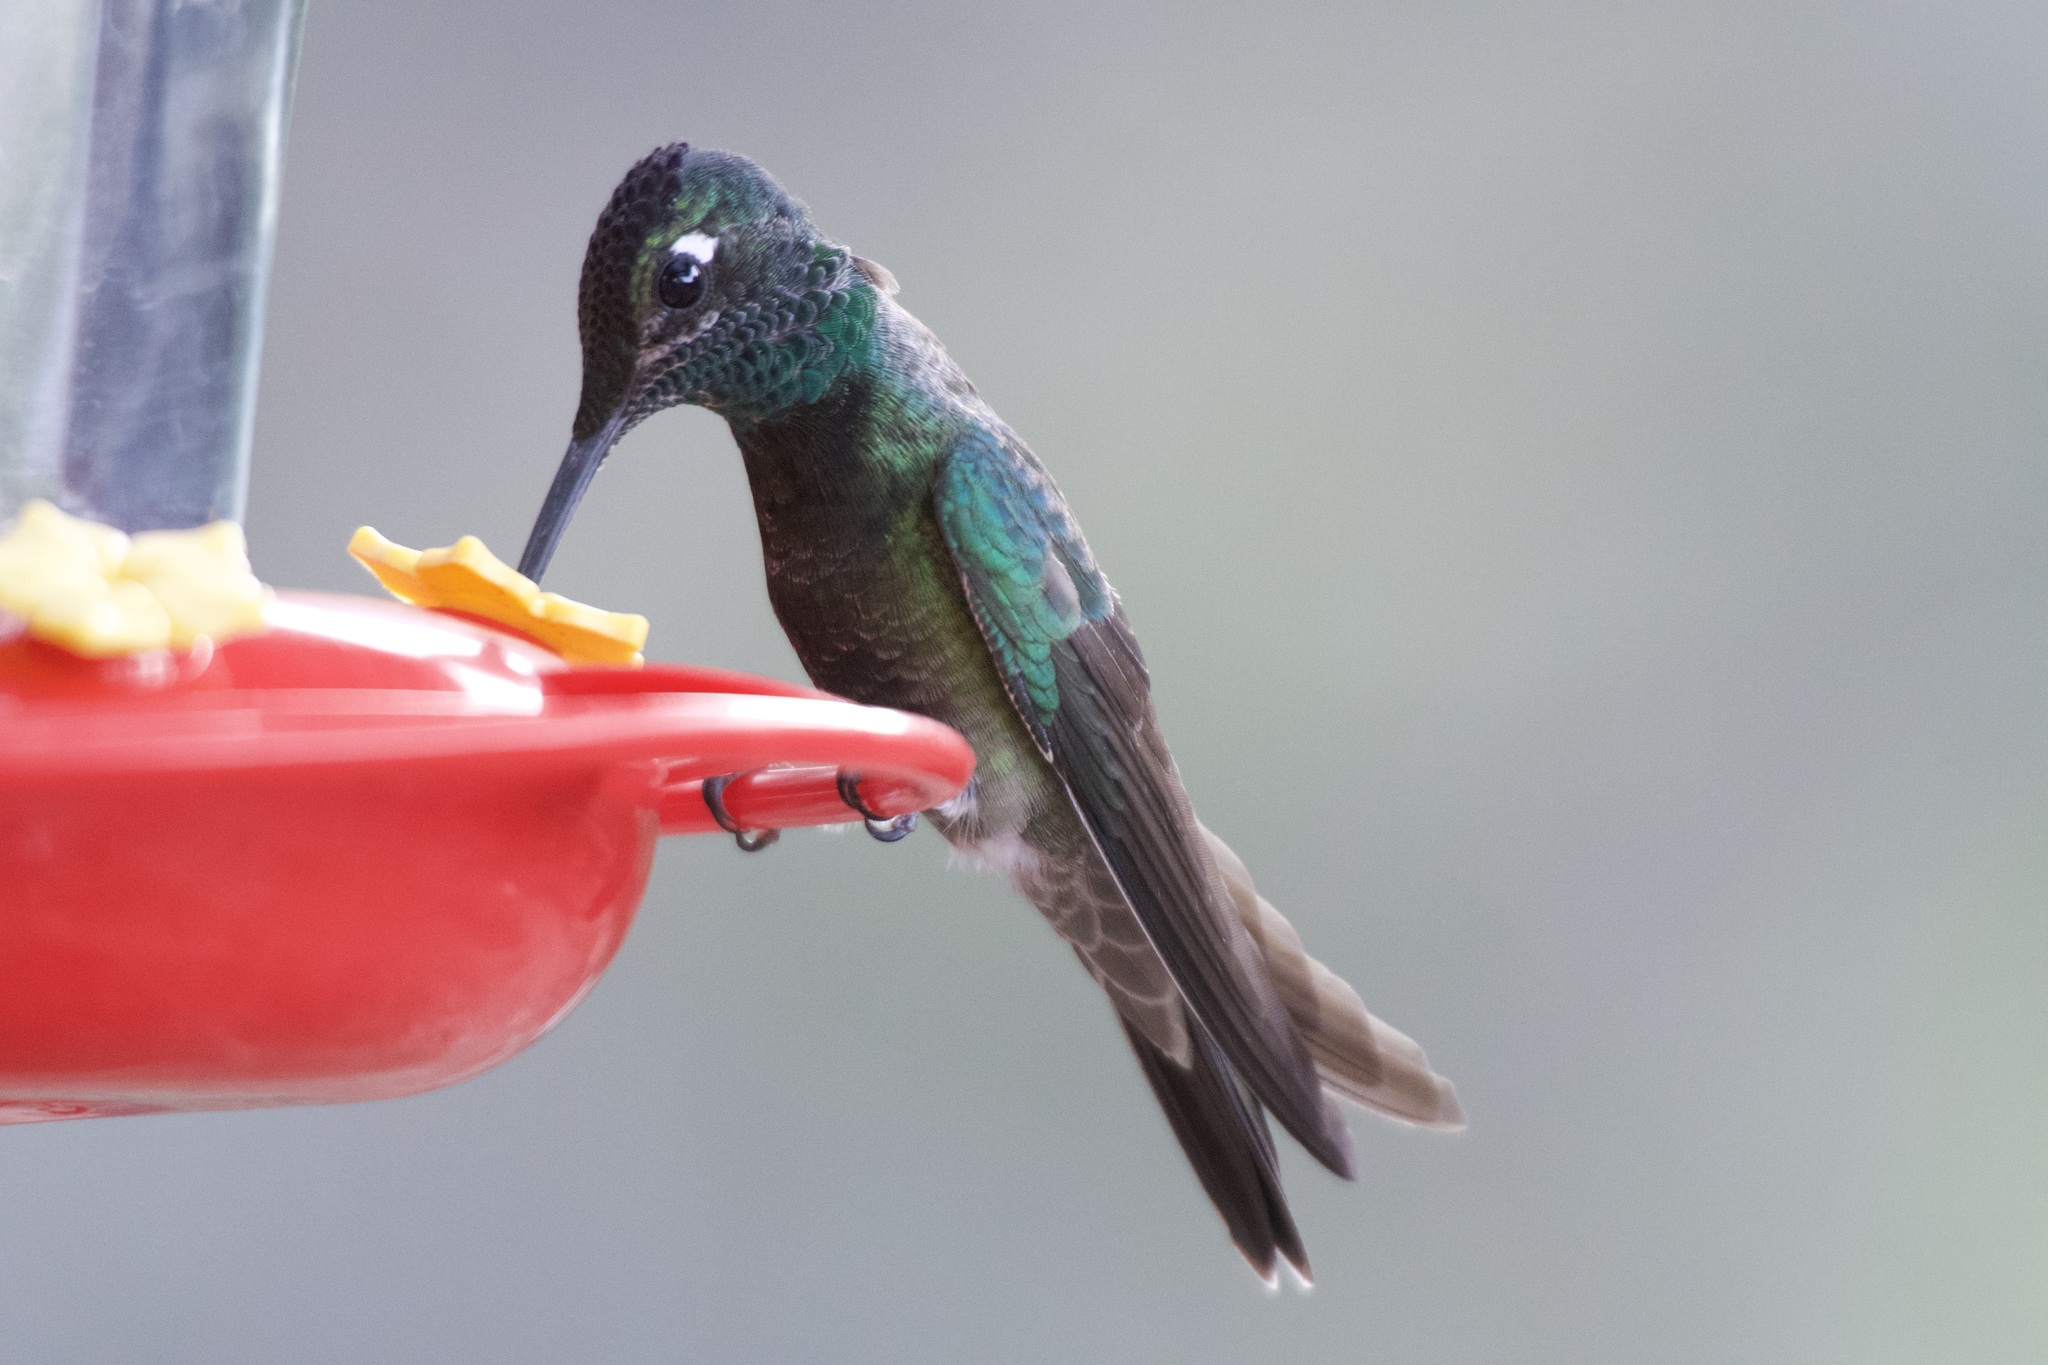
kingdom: Animalia
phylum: Chordata
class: Aves
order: Apodiformes
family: Trochilidae
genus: Eugenes
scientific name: Eugenes fulgens
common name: Magnificent hummingbird
